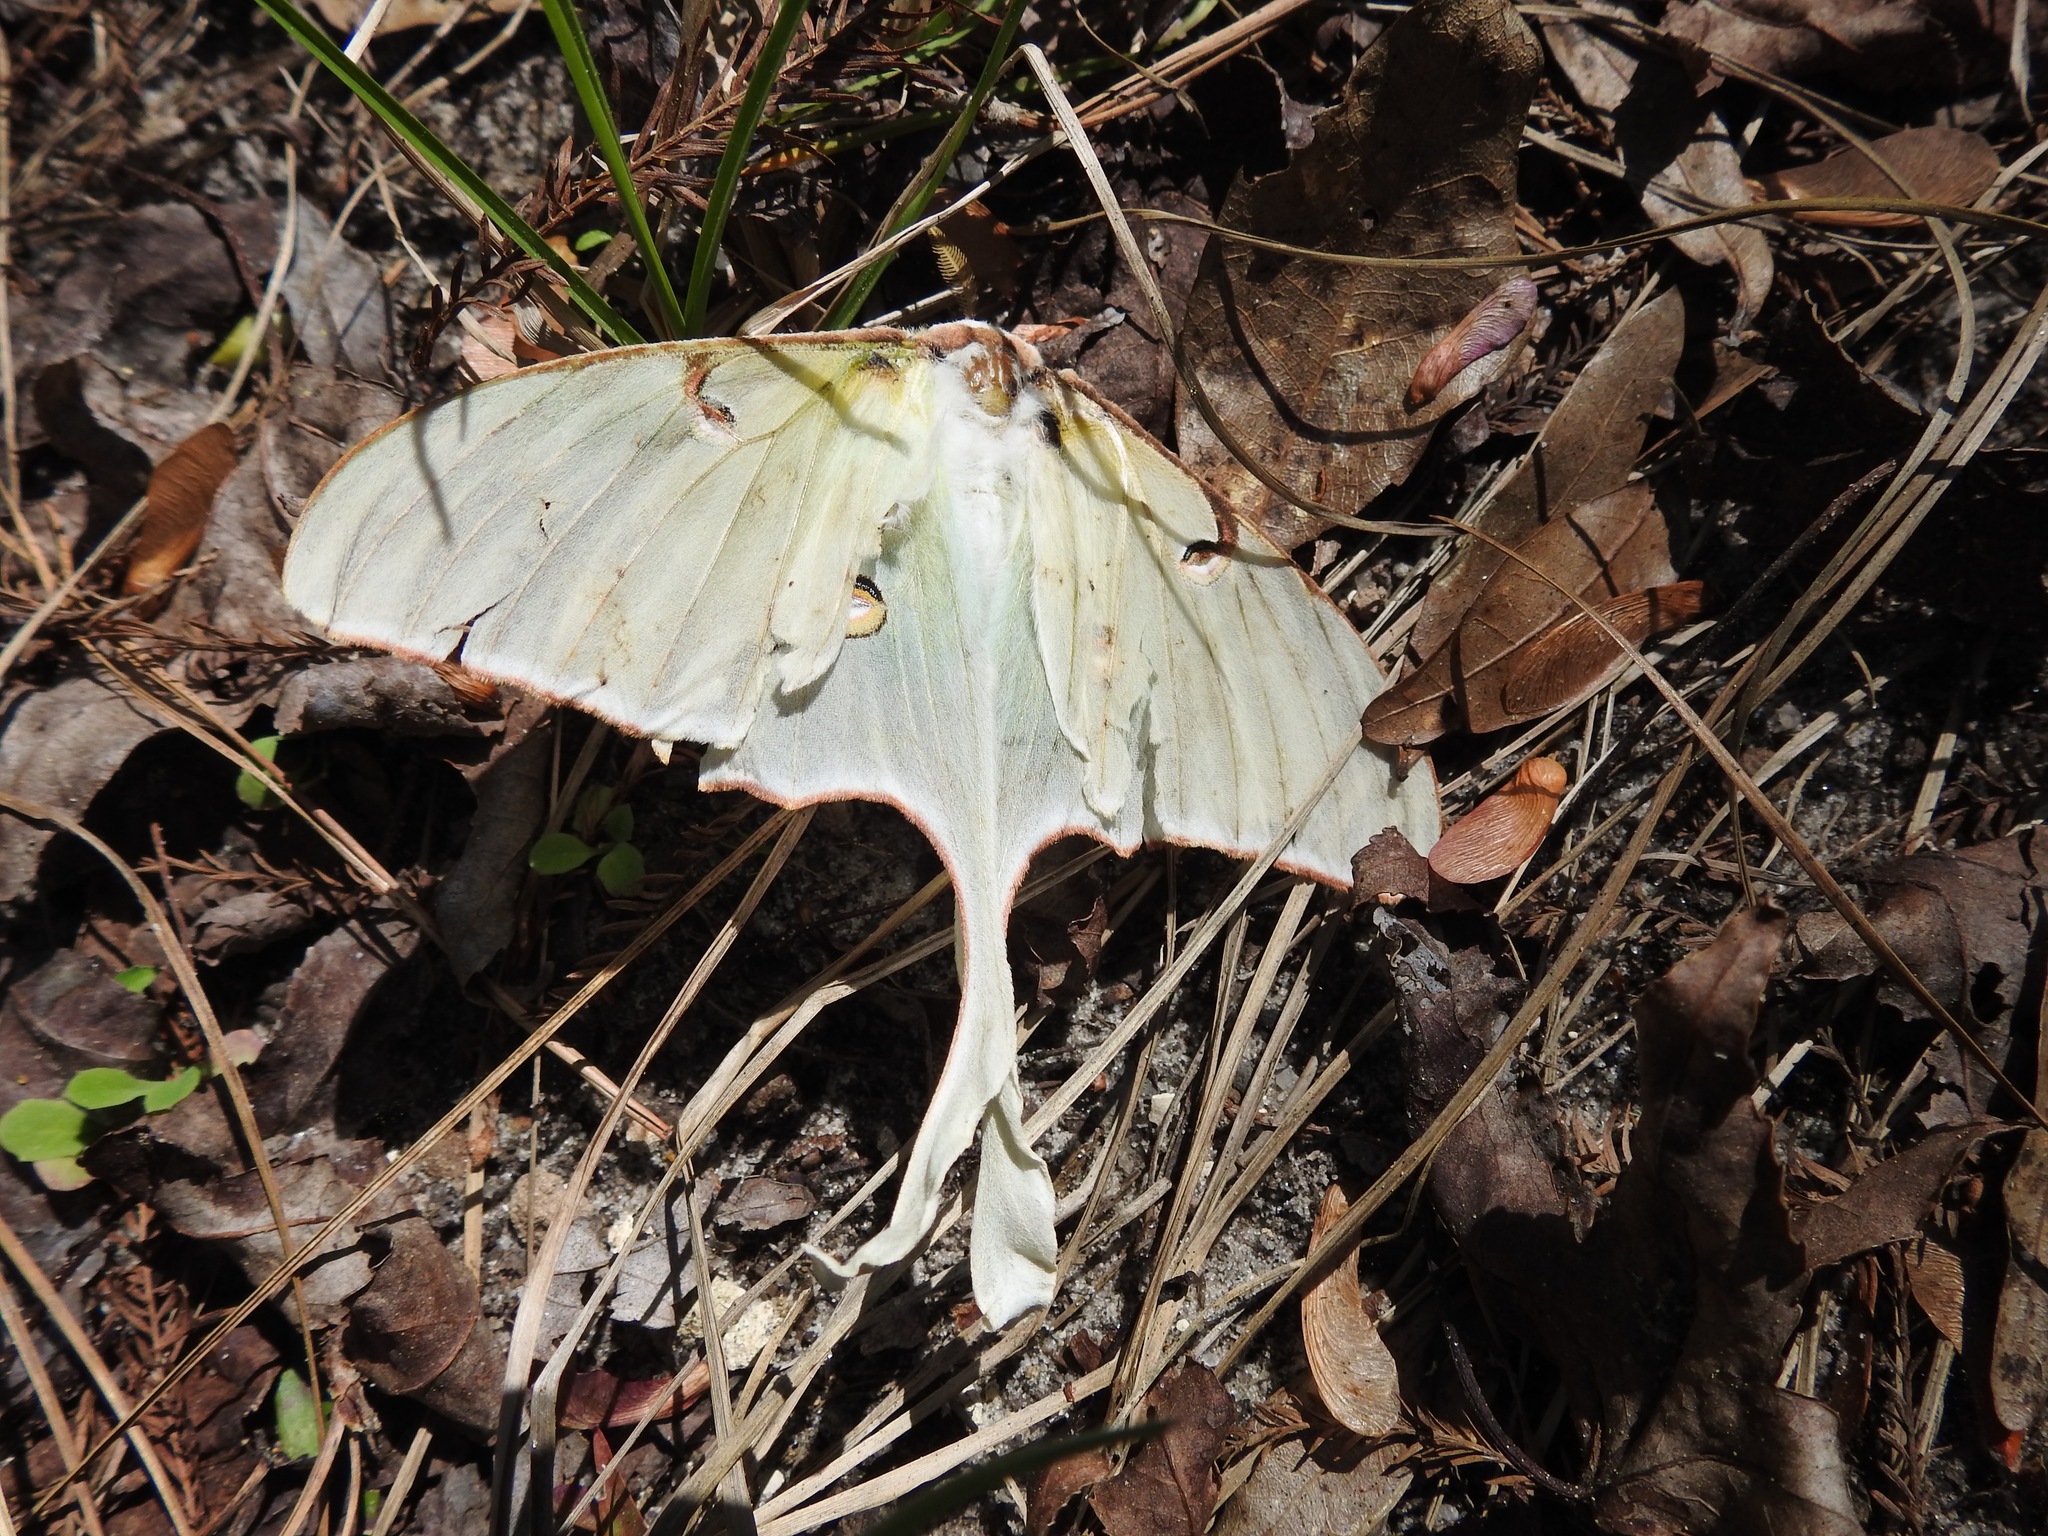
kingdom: Animalia
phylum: Arthropoda
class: Insecta
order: Lepidoptera
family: Saturniidae
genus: Actias
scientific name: Actias luna
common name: Luna moth
